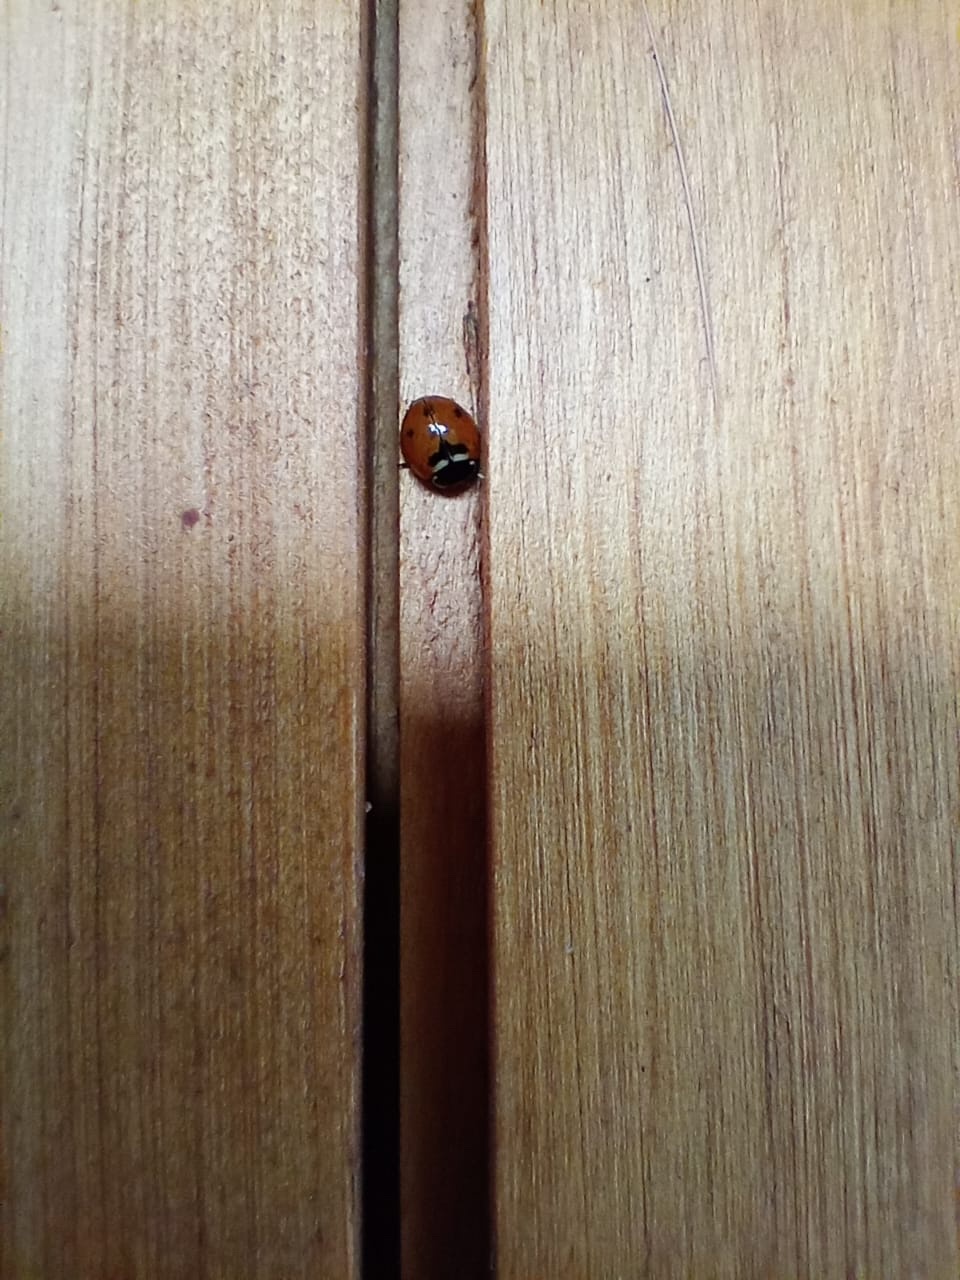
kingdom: Animalia
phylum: Arthropoda
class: Insecta
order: Coleoptera
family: Coccinellidae
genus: Adalia
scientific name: Adalia deficiens
